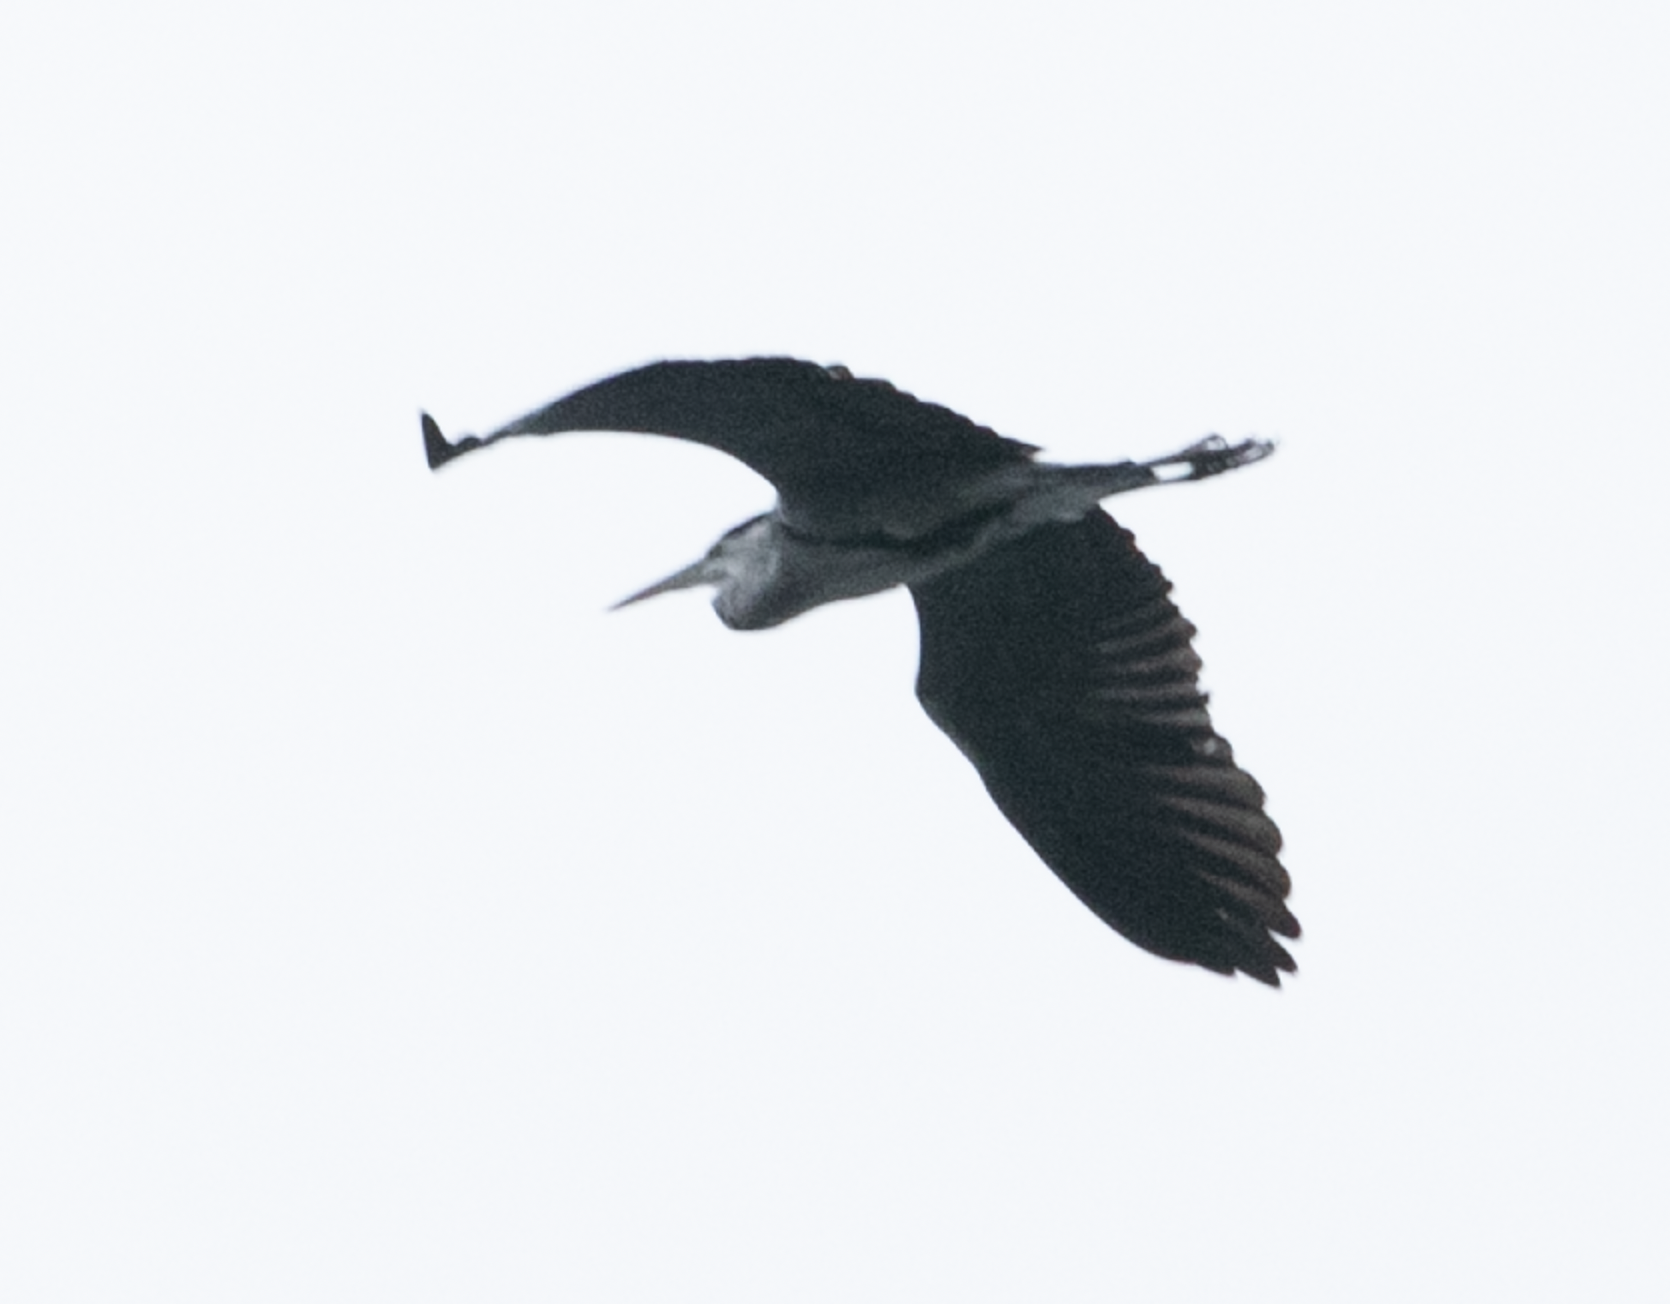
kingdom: Animalia
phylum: Chordata
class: Aves
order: Pelecaniformes
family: Ardeidae
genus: Ardea
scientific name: Ardea cinerea
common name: Grey heron
